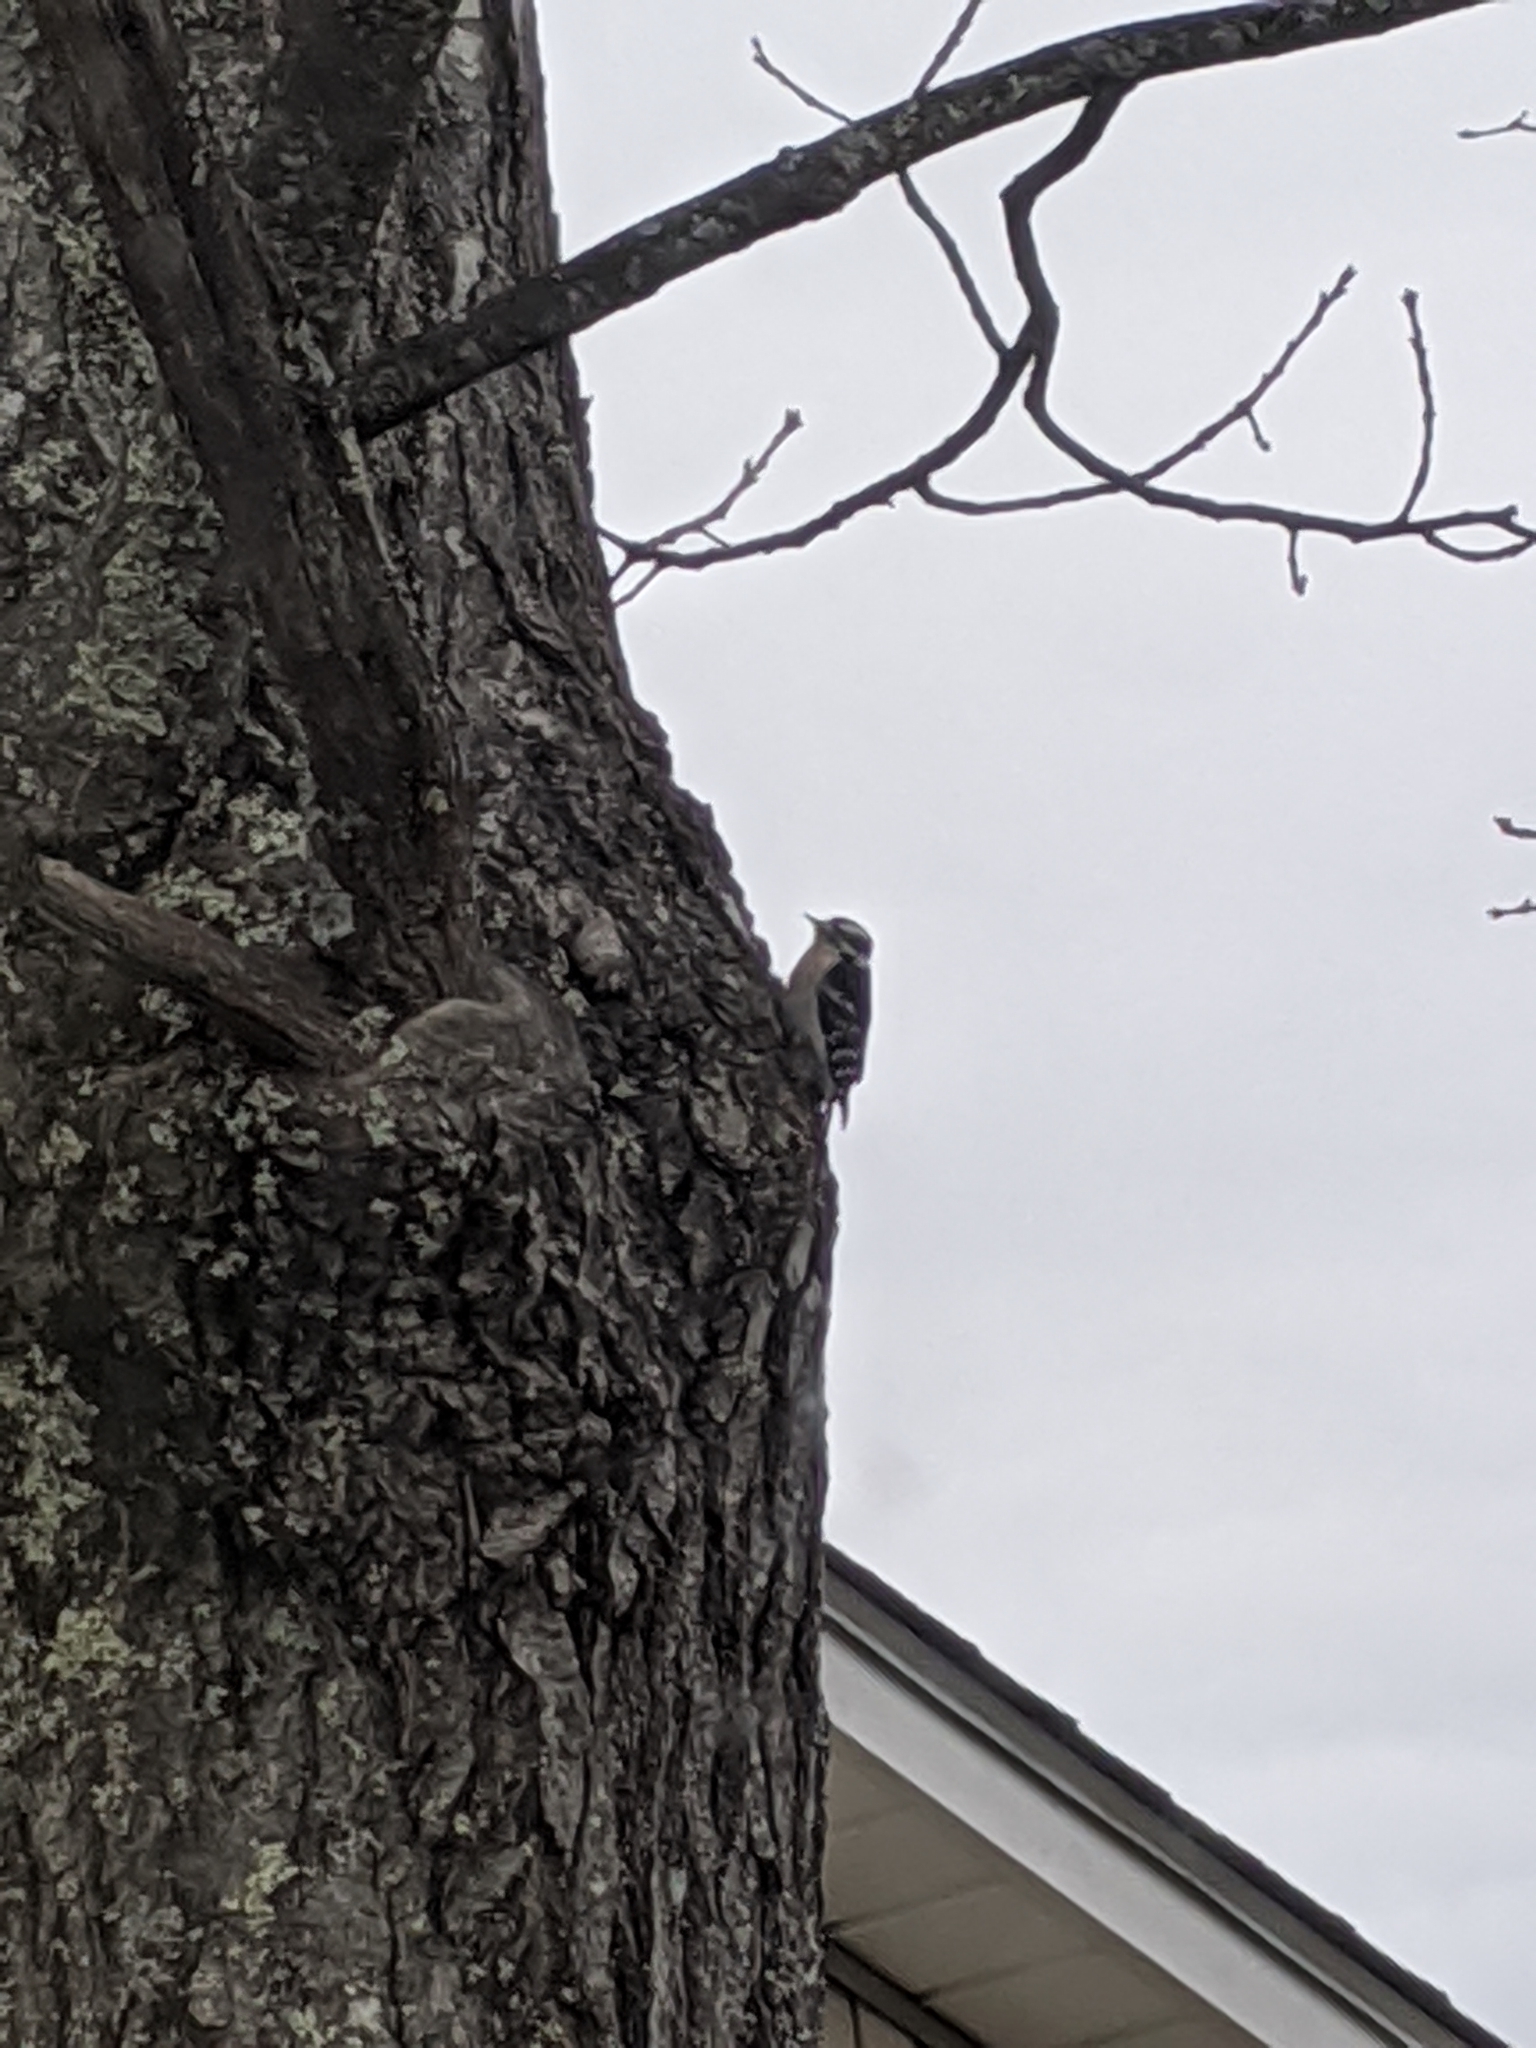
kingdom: Animalia
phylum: Chordata
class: Aves
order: Piciformes
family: Picidae
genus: Dryobates
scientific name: Dryobates pubescens
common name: Downy woodpecker
